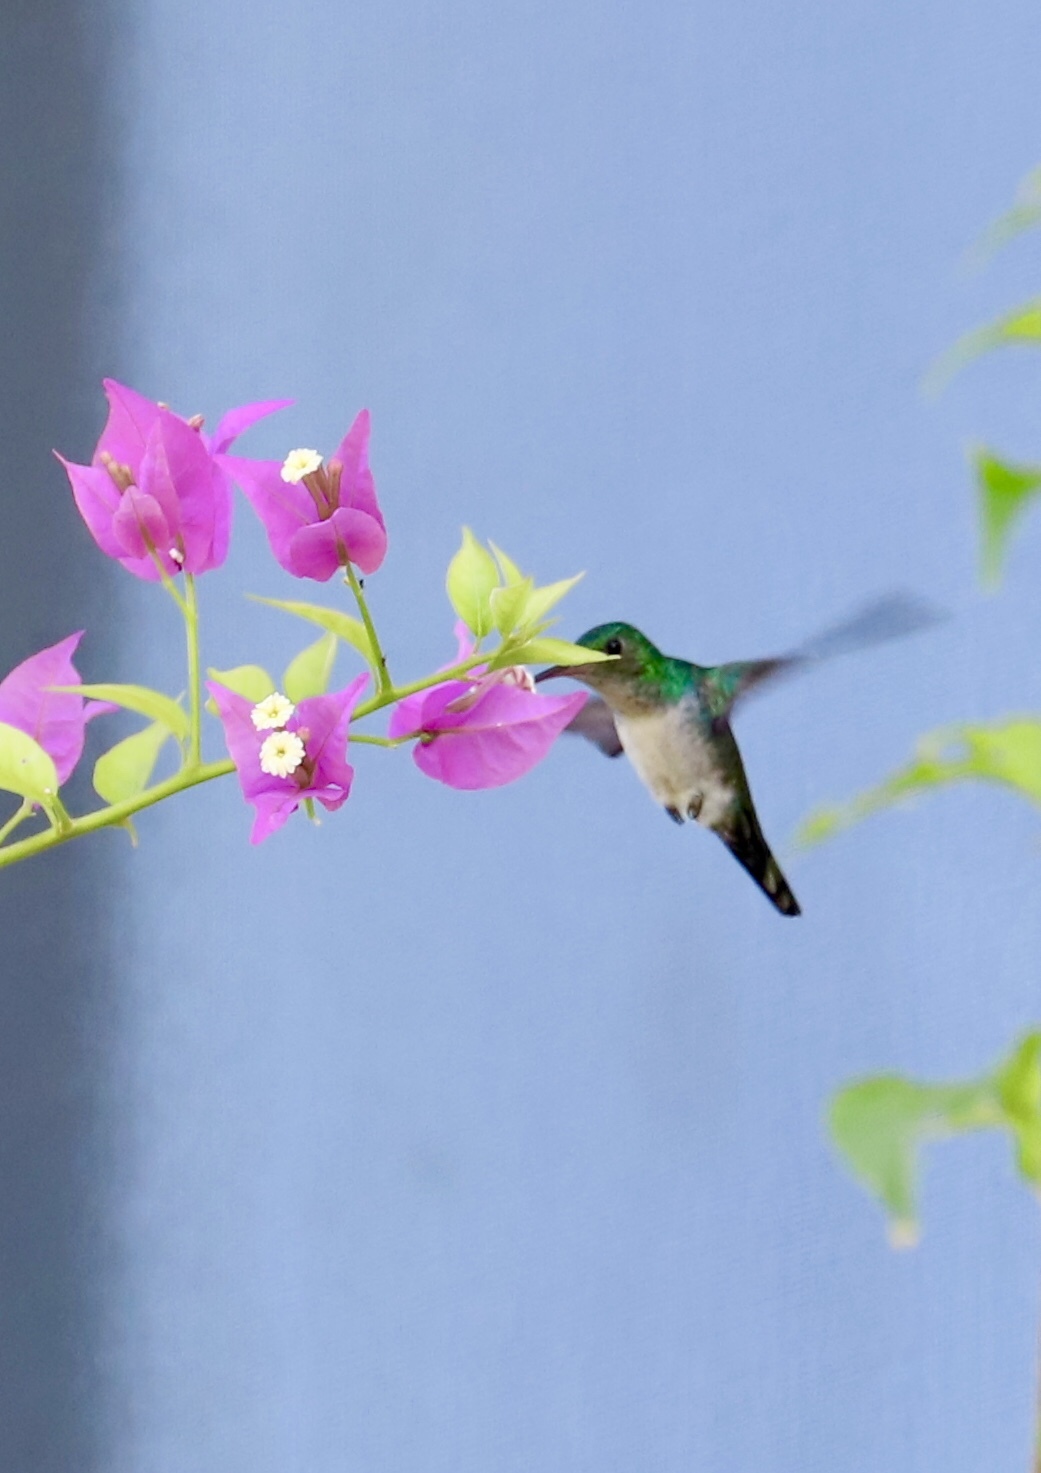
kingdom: Animalia
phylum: Chordata
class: Aves
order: Apodiformes
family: Trochilidae
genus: Chrysuronia
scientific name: Chrysuronia coeruleogularis
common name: Sapphire-throated hummingbird
